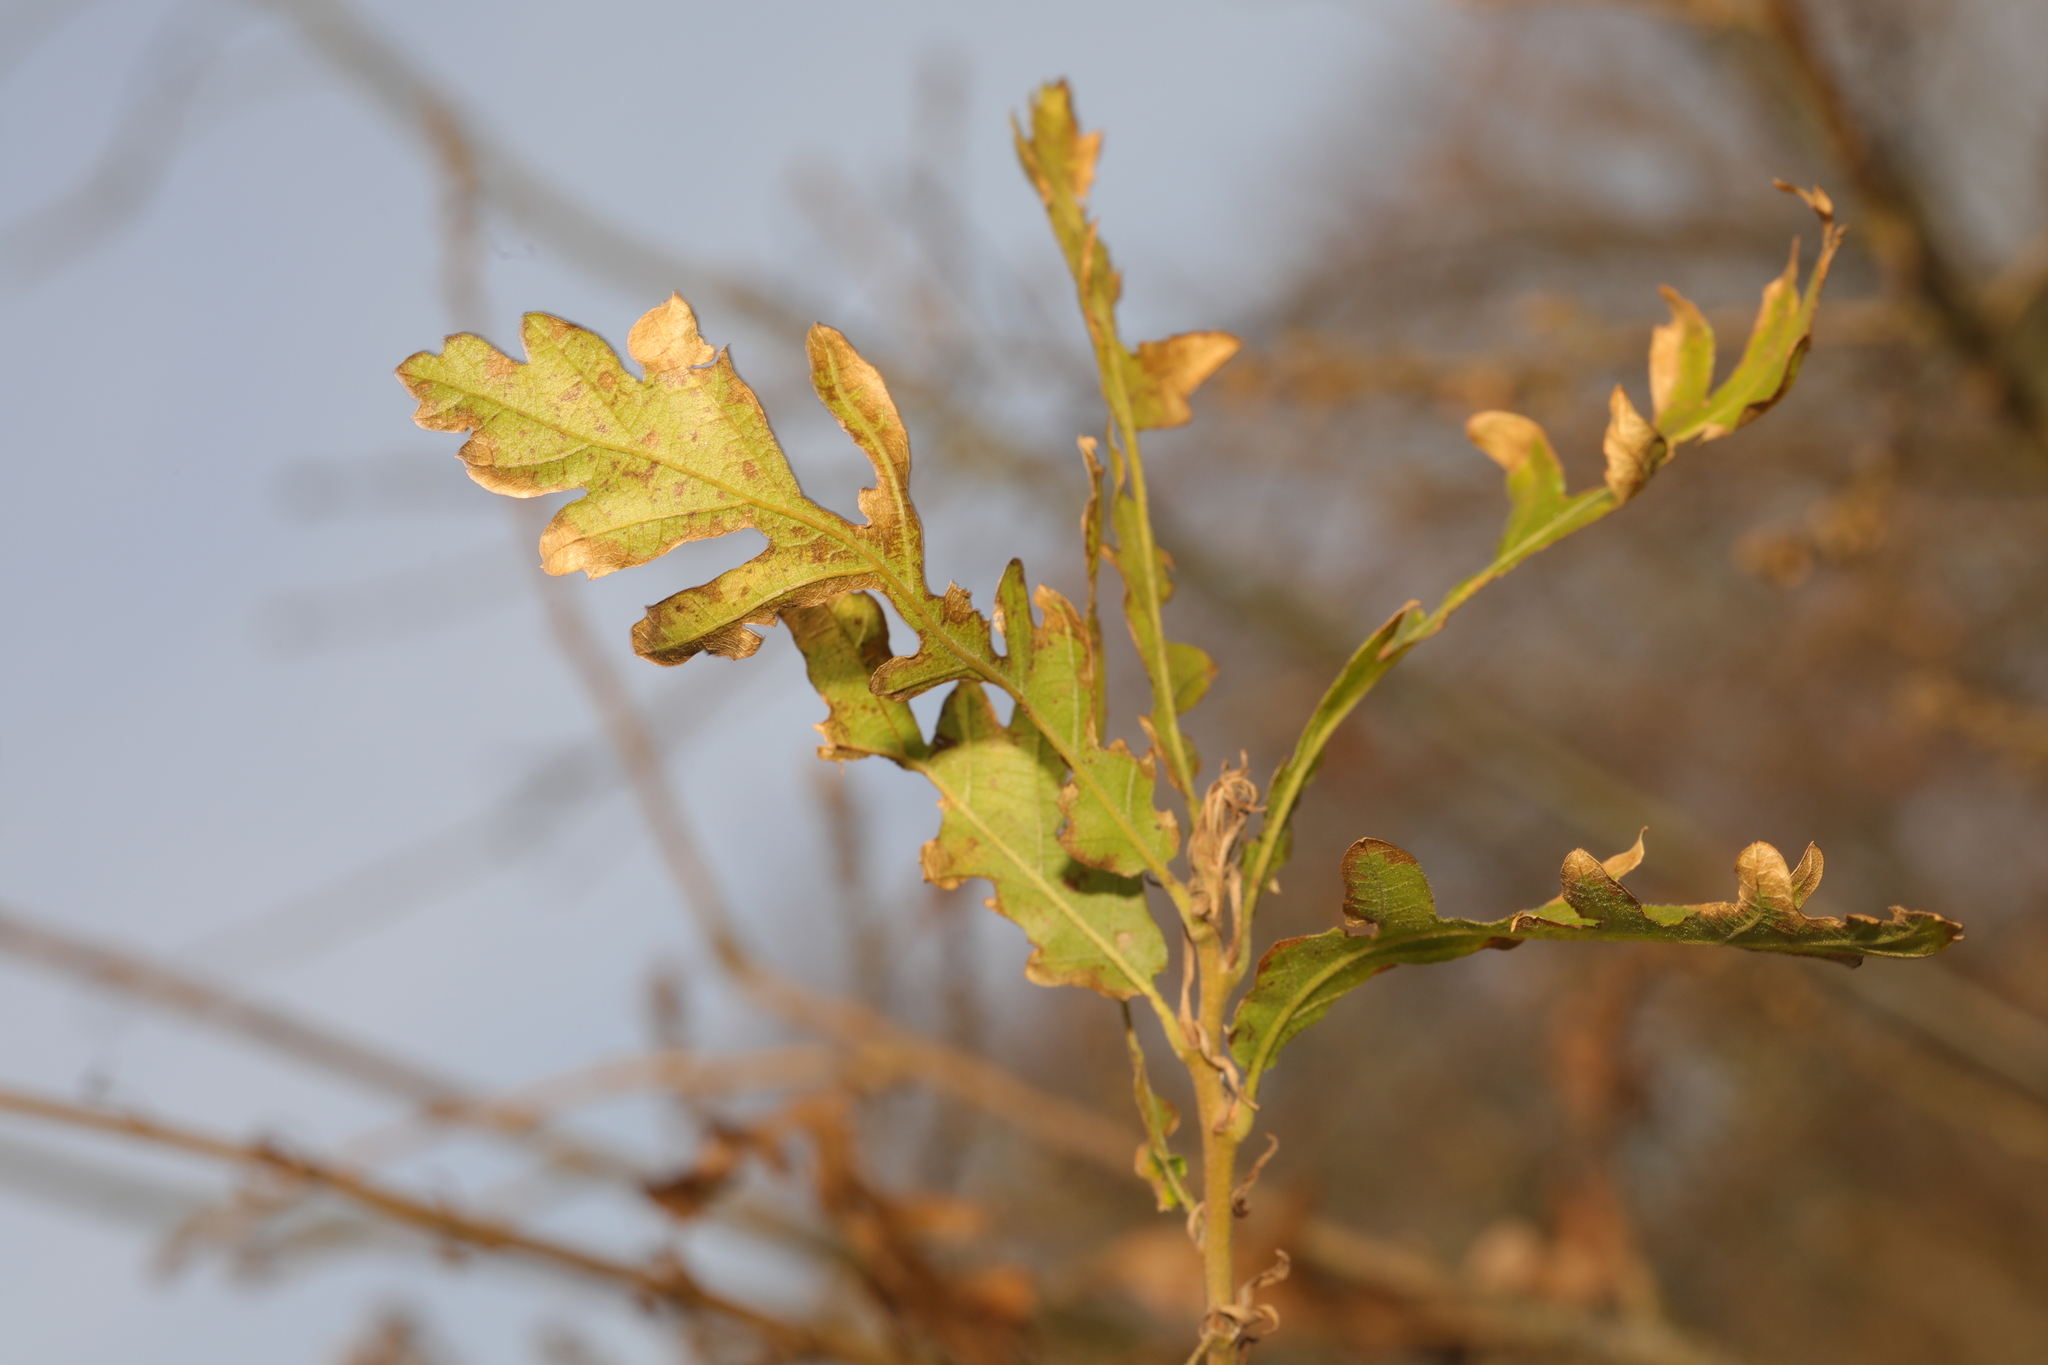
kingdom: Plantae
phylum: Tracheophyta
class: Magnoliopsida
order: Fagales
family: Fagaceae
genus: Quercus
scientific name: Quercus cerris
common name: Turkey oak
